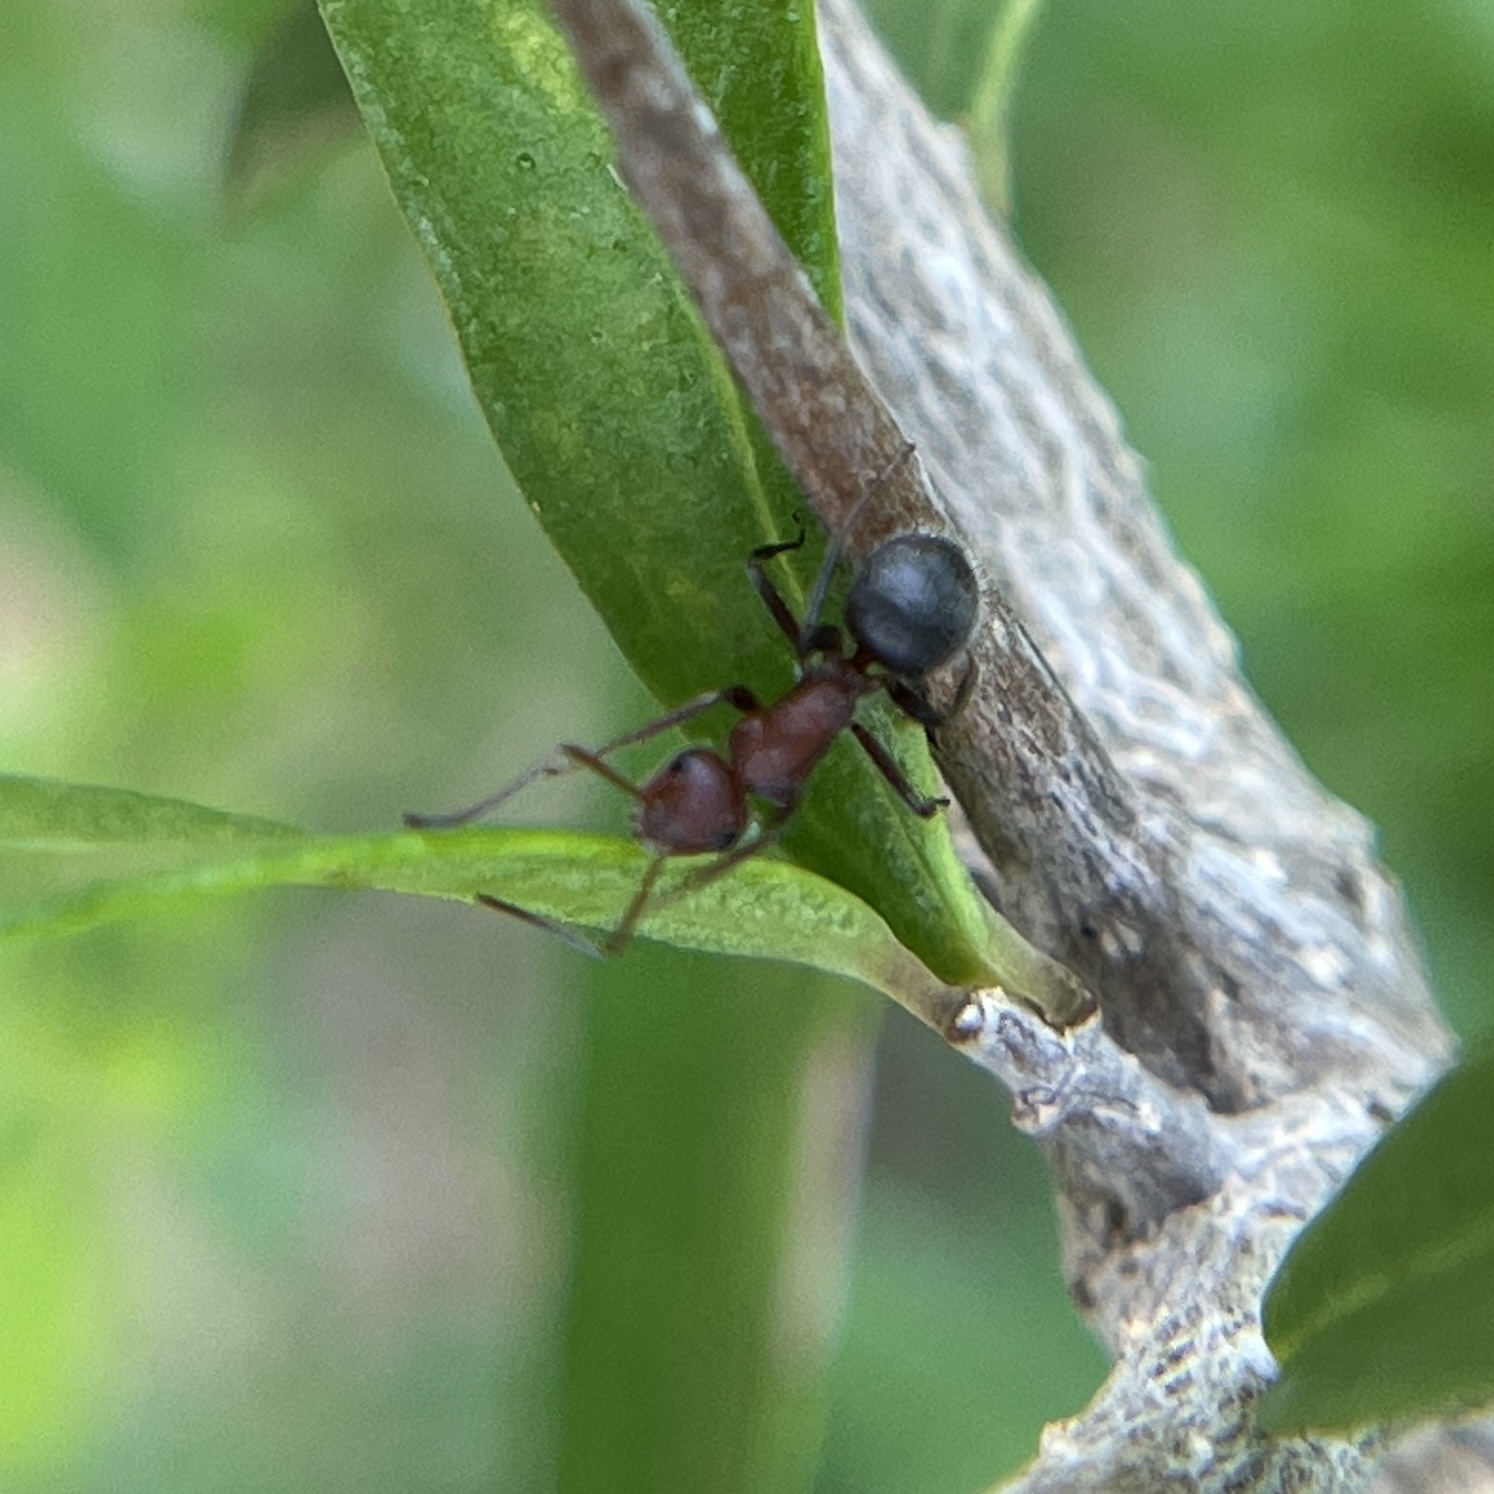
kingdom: Animalia
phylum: Arthropoda
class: Insecta
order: Hymenoptera
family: Formicidae
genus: Camponotus
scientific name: Camponotus planatus
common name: Compact carpenter ant
